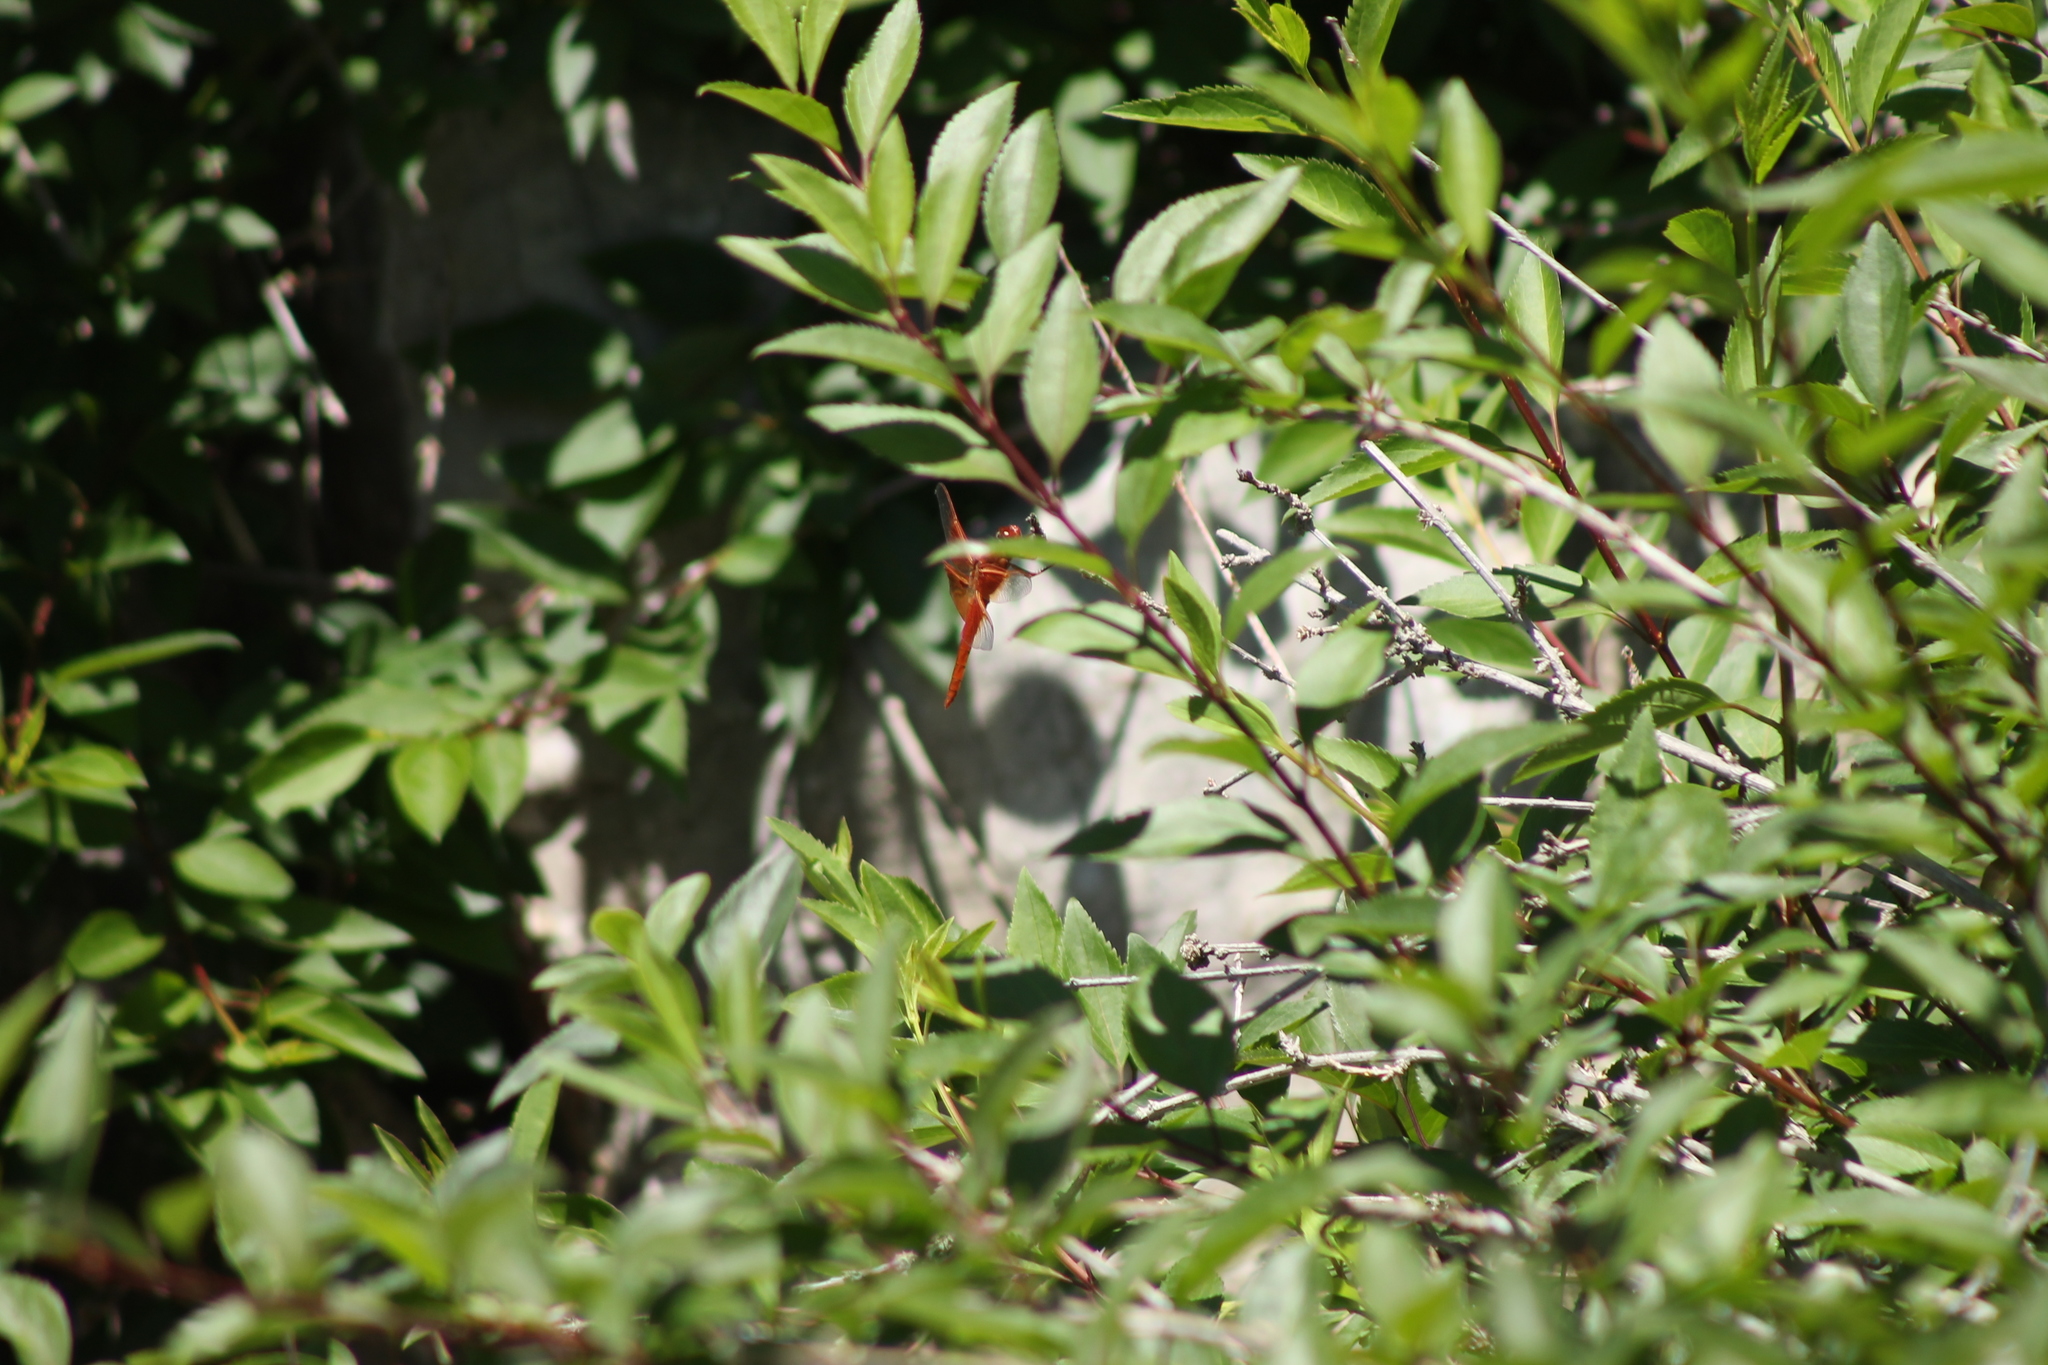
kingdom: Animalia
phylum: Arthropoda
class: Insecta
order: Odonata
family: Libellulidae
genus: Libellula
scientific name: Libellula saturata
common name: Flame skimmer
